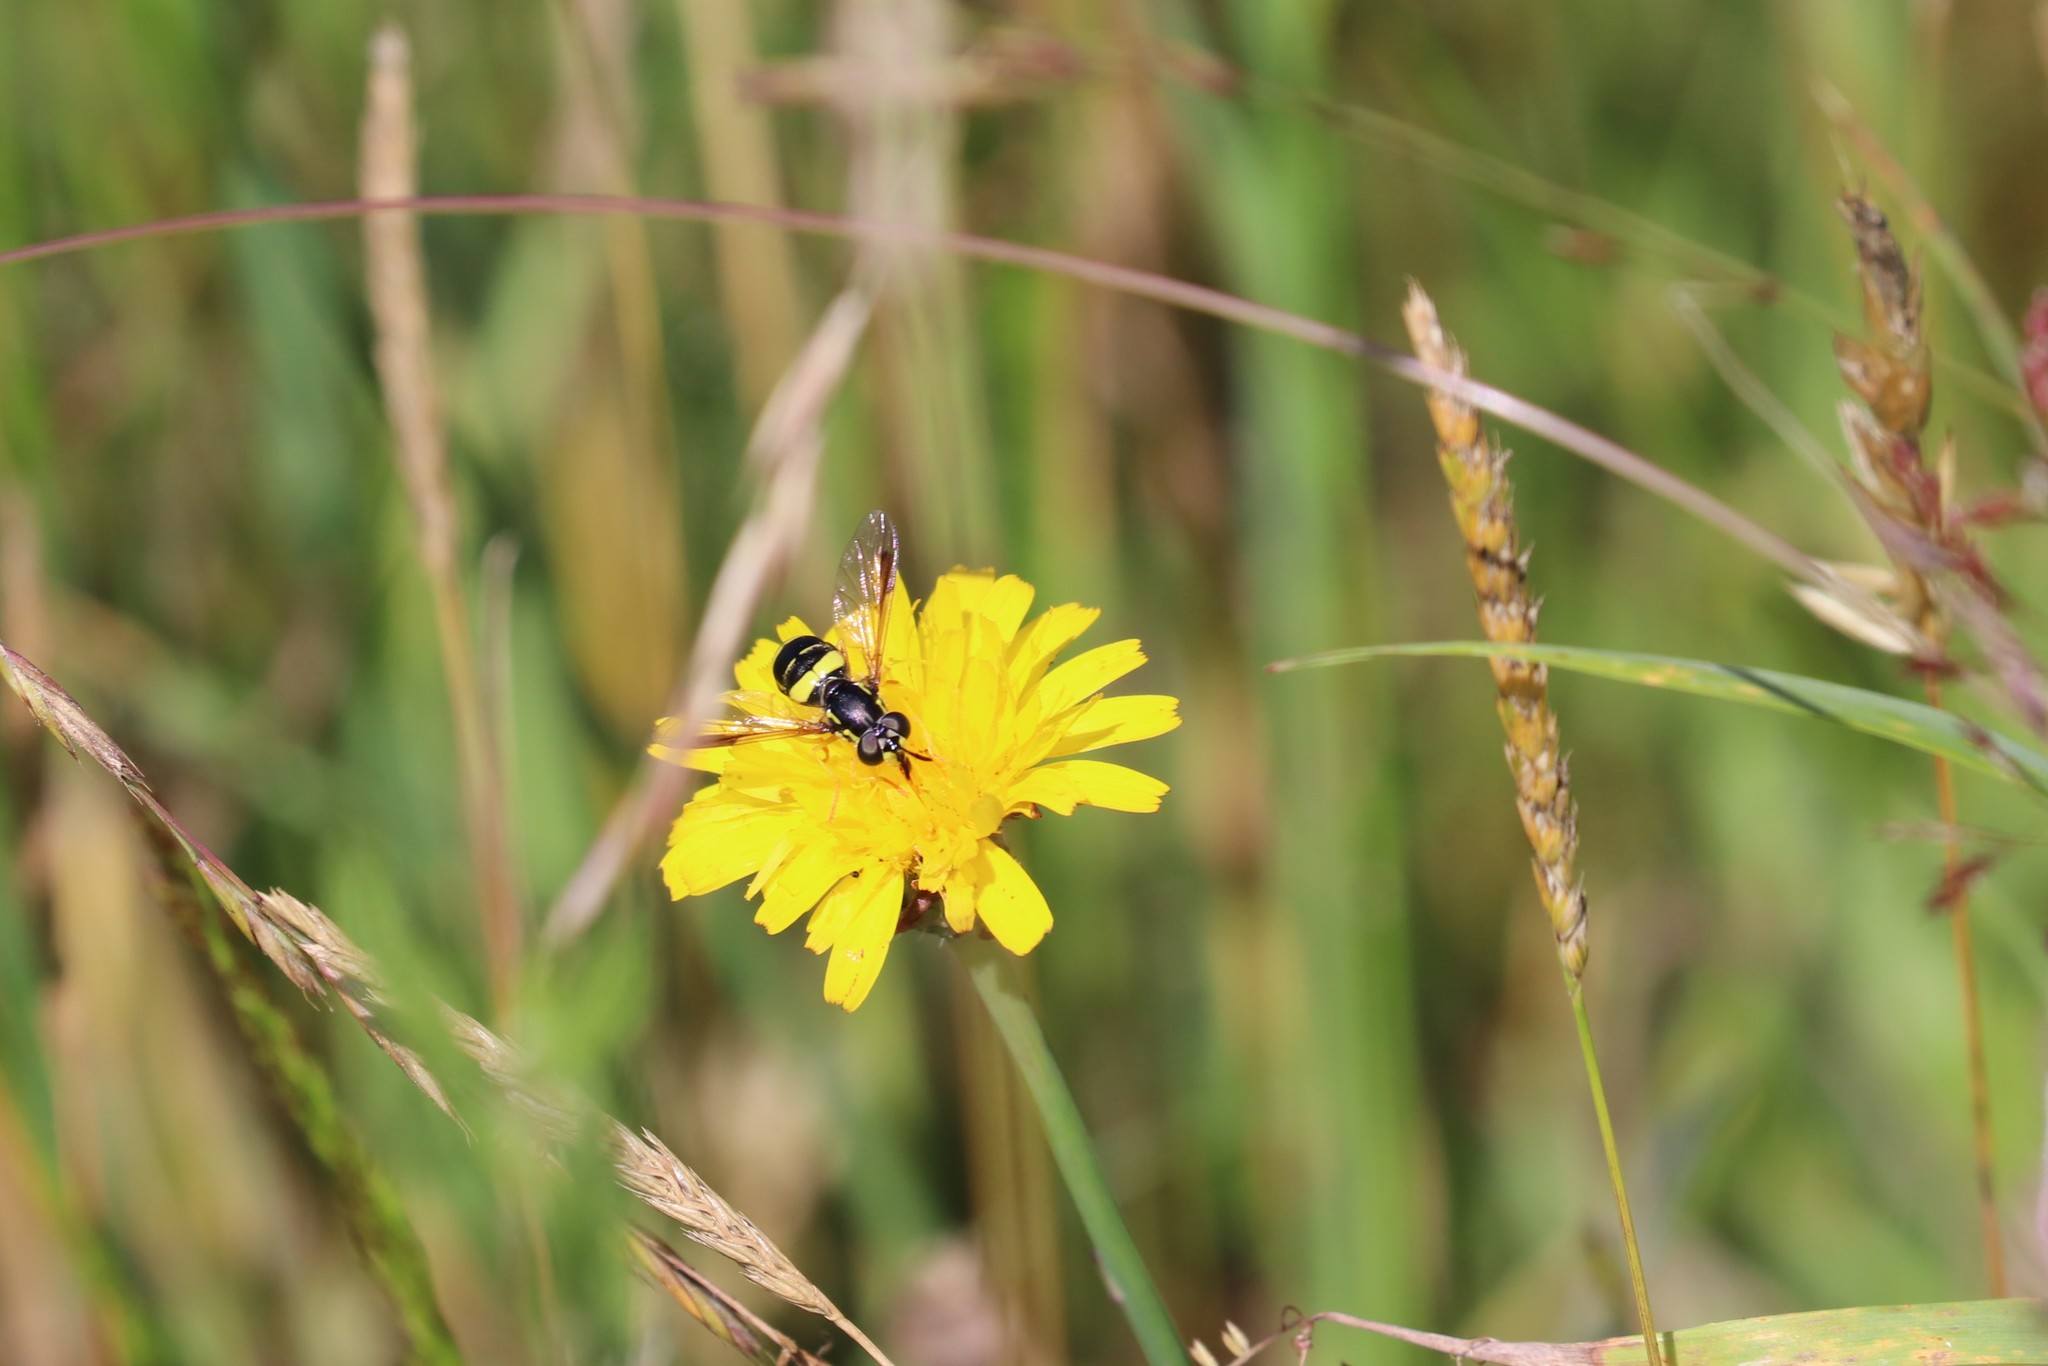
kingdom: Animalia
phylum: Arthropoda
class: Insecta
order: Diptera
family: Syrphidae
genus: Chrysotoxum
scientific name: Chrysotoxum bicincta
